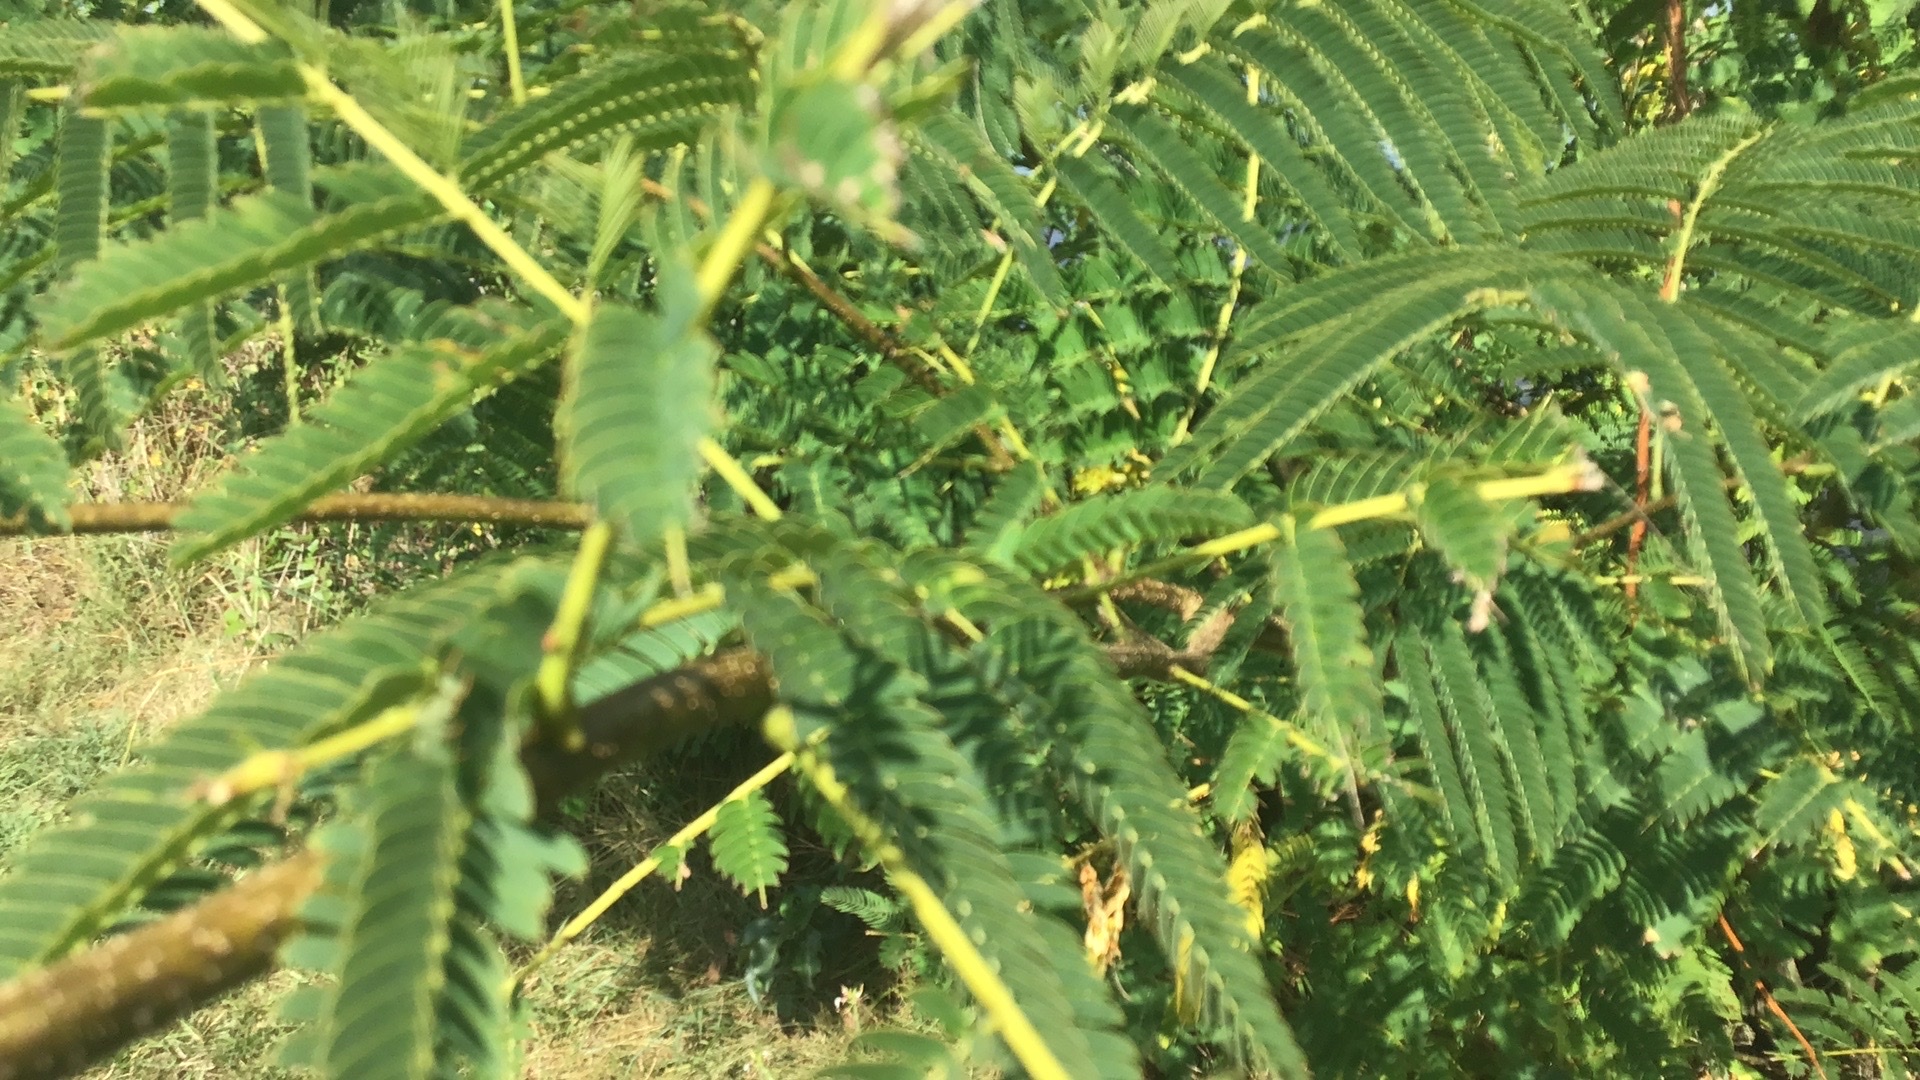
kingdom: Plantae
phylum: Tracheophyta
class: Magnoliopsida
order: Fabales
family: Fabaceae
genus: Albizia
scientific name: Albizia julibrissin
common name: Silktree
